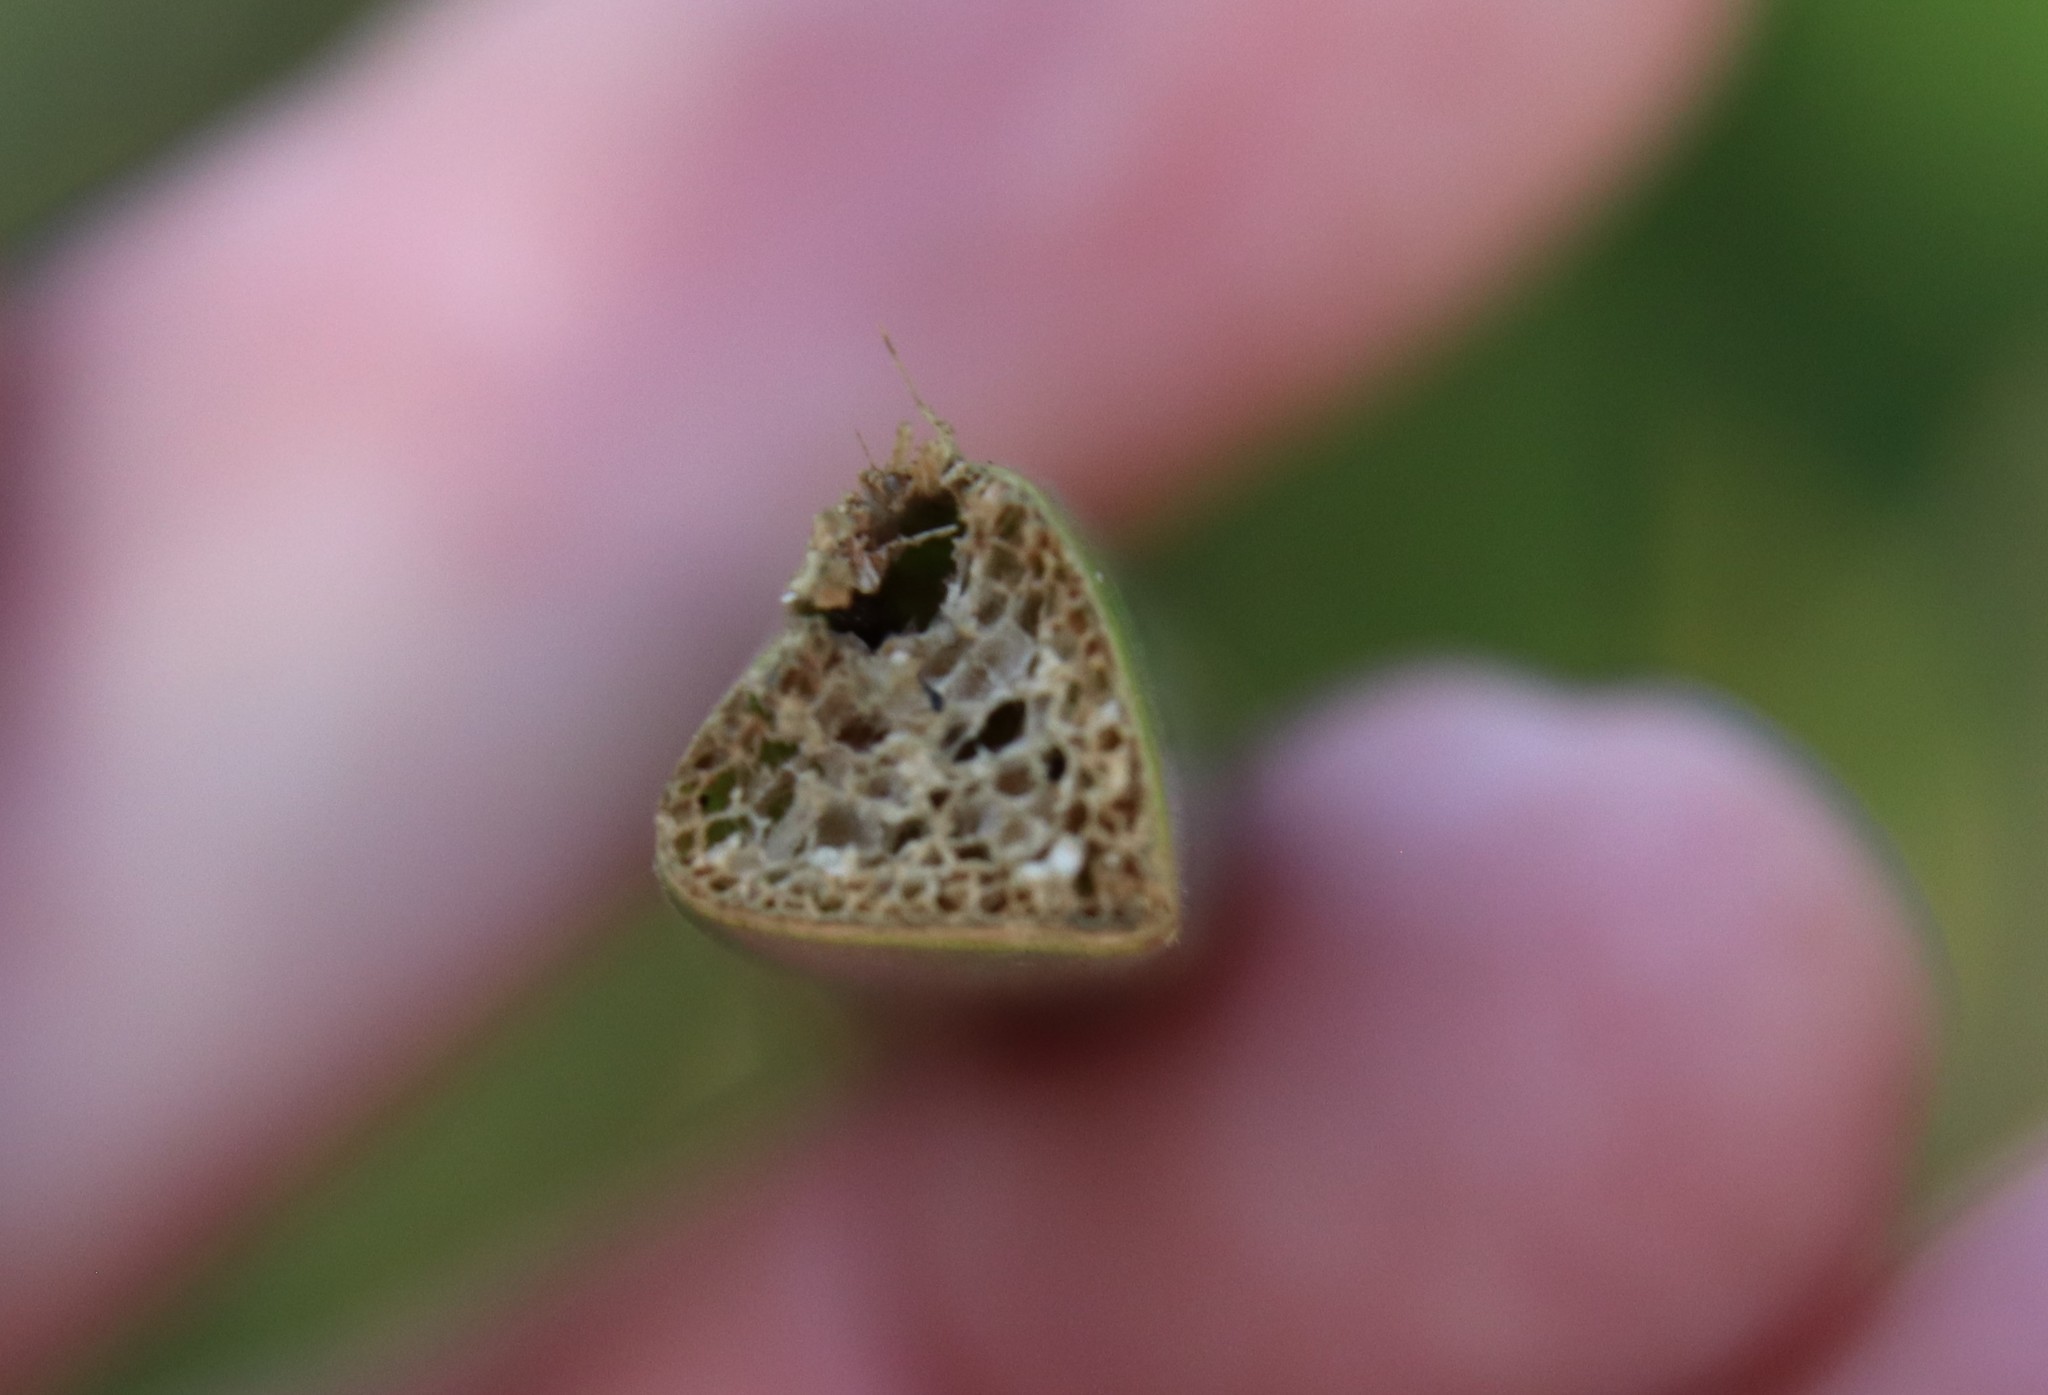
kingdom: Plantae
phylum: Tracheophyta
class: Liliopsida
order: Poales
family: Cyperaceae
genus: Schoenoplectus
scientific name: Schoenoplectus californicus
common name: California bulrush
